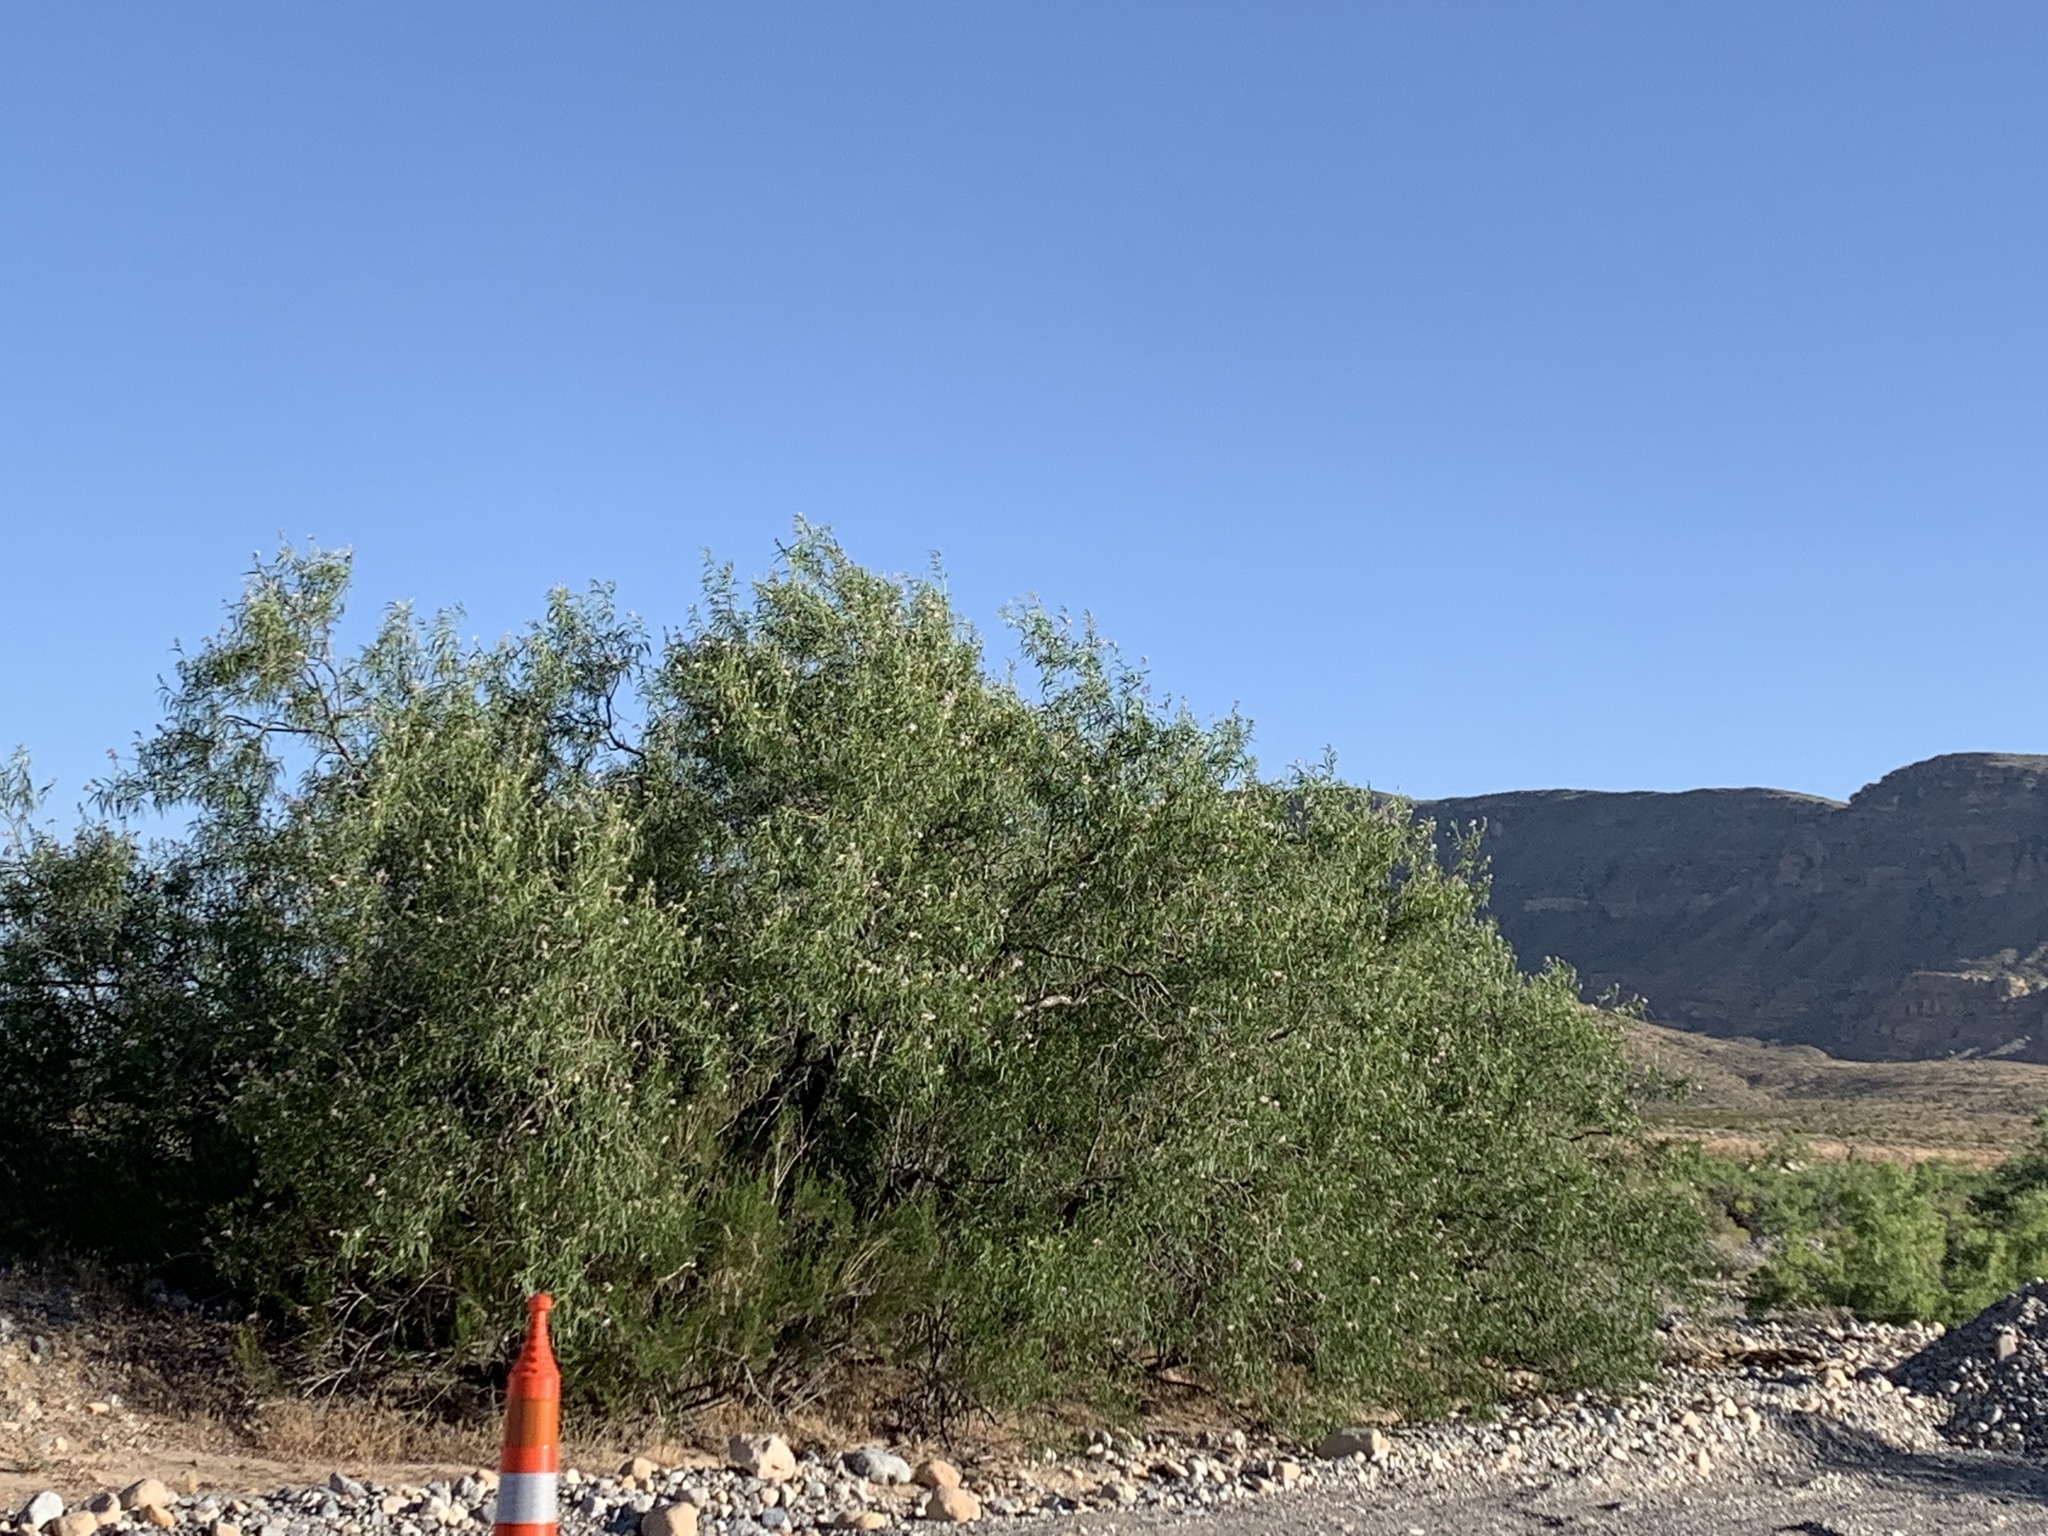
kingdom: Plantae
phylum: Tracheophyta
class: Magnoliopsida
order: Lamiales
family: Bignoniaceae
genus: Chilopsis
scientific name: Chilopsis linearis
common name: Desert-willow
